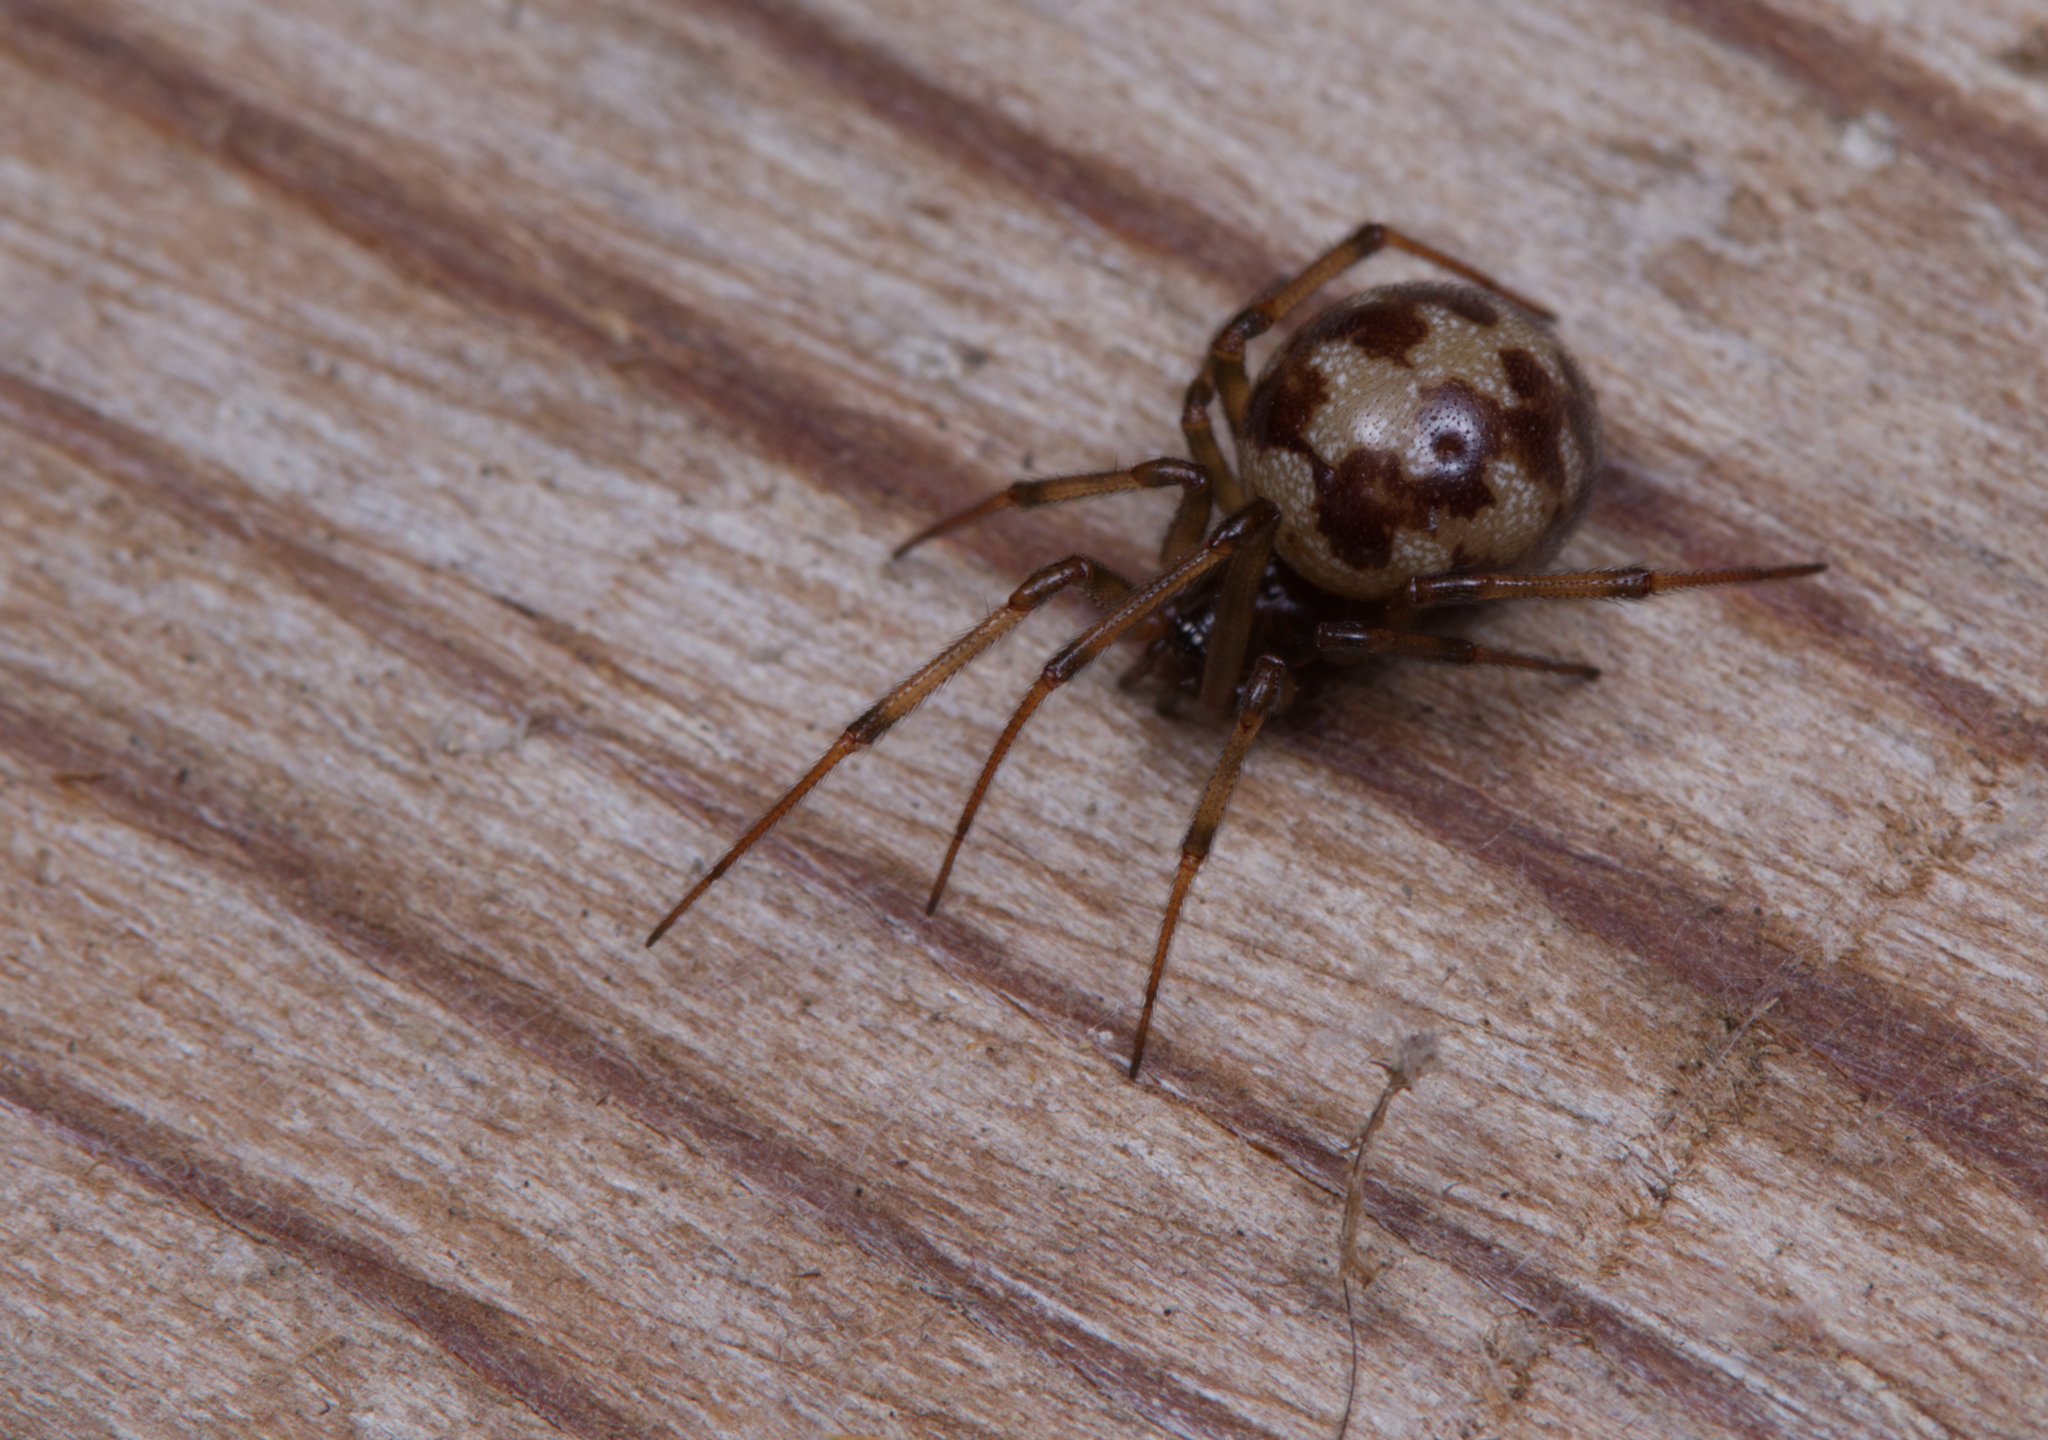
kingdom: Animalia
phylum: Arthropoda
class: Arachnida
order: Araneae
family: Theridiidae
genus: Steatoda
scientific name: Steatoda triangulosa
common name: Triangulate bud spider
